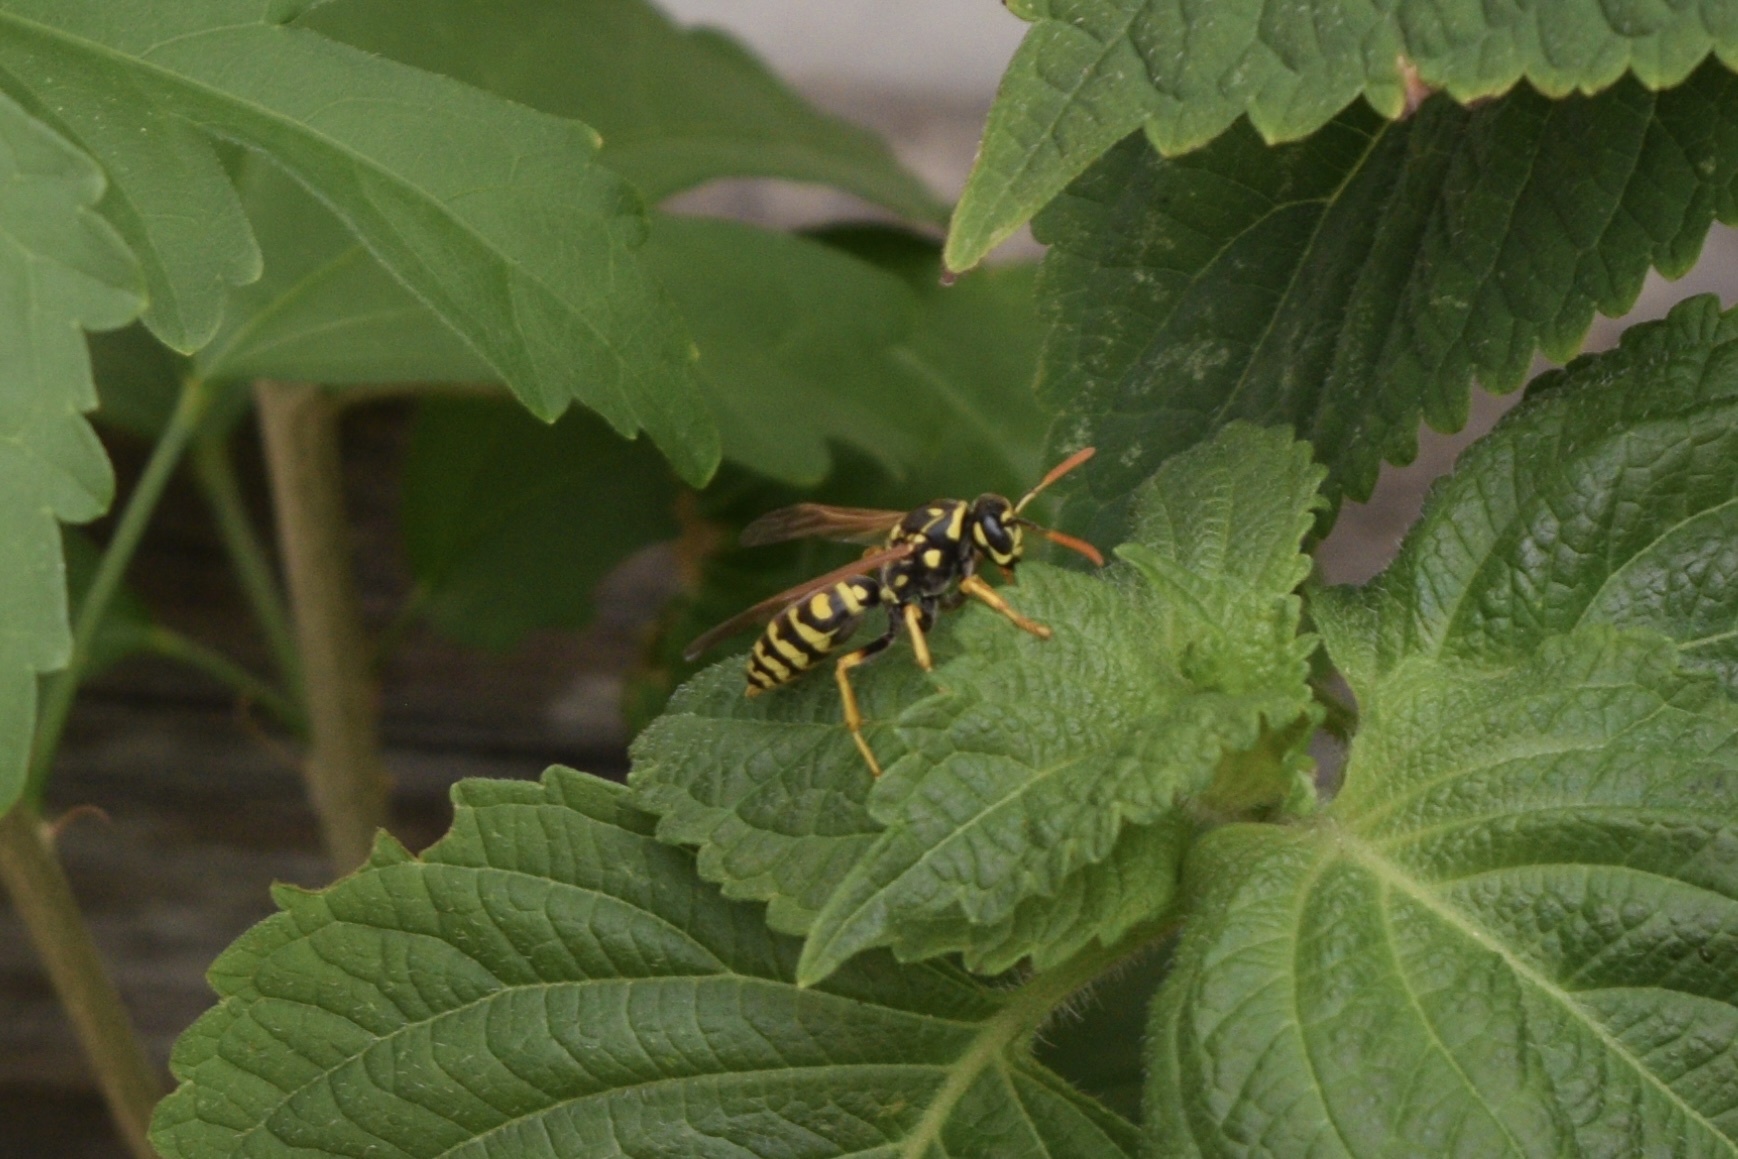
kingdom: Animalia
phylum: Arthropoda
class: Insecta
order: Hymenoptera
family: Eumenidae
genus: Polistes
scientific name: Polistes dominula
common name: Paper wasp
